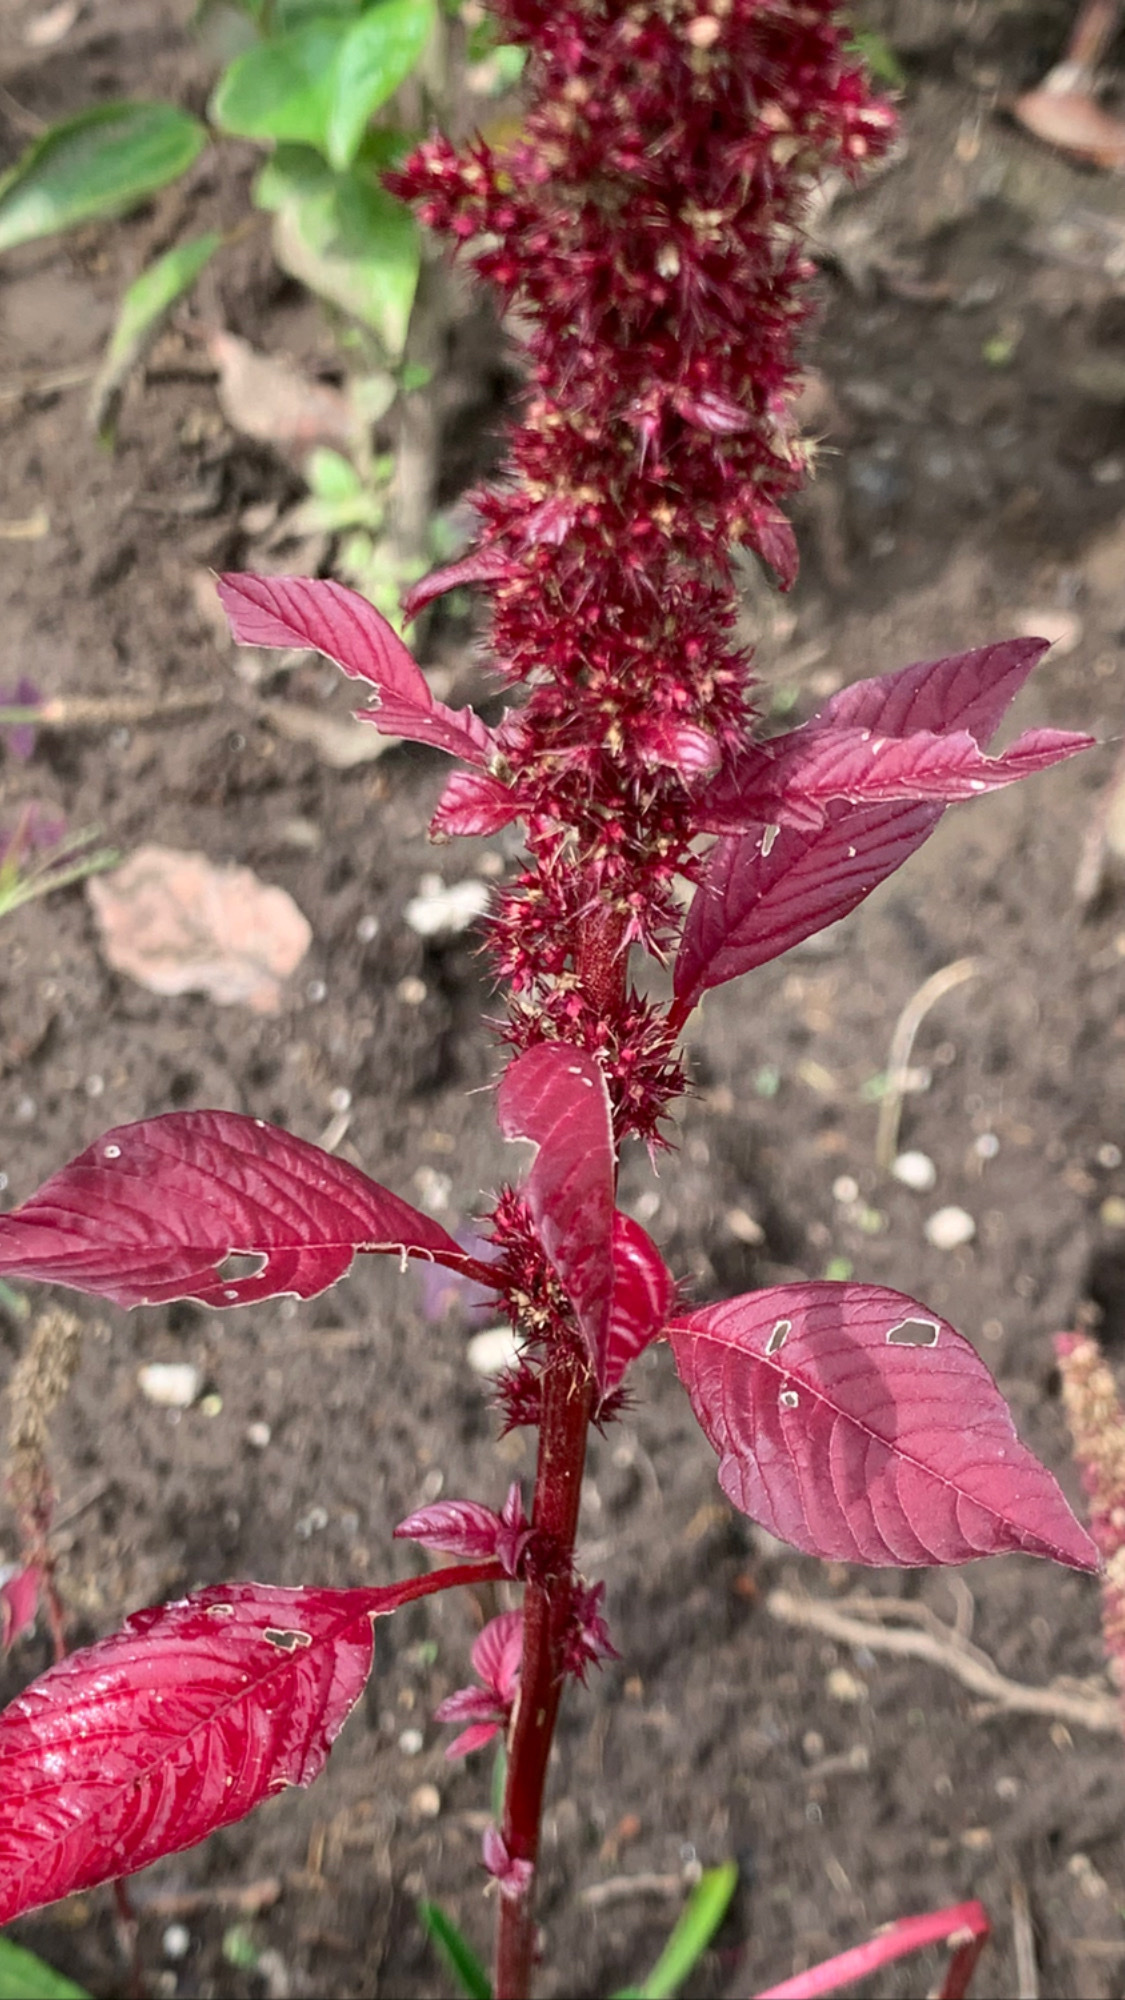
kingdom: Plantae
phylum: Tracheophyta
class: Magnoliopsida
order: Caryophyllales
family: Amaranthaceae
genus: Amaranthus
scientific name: Amaranthus cruentus
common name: Purple amaranth
